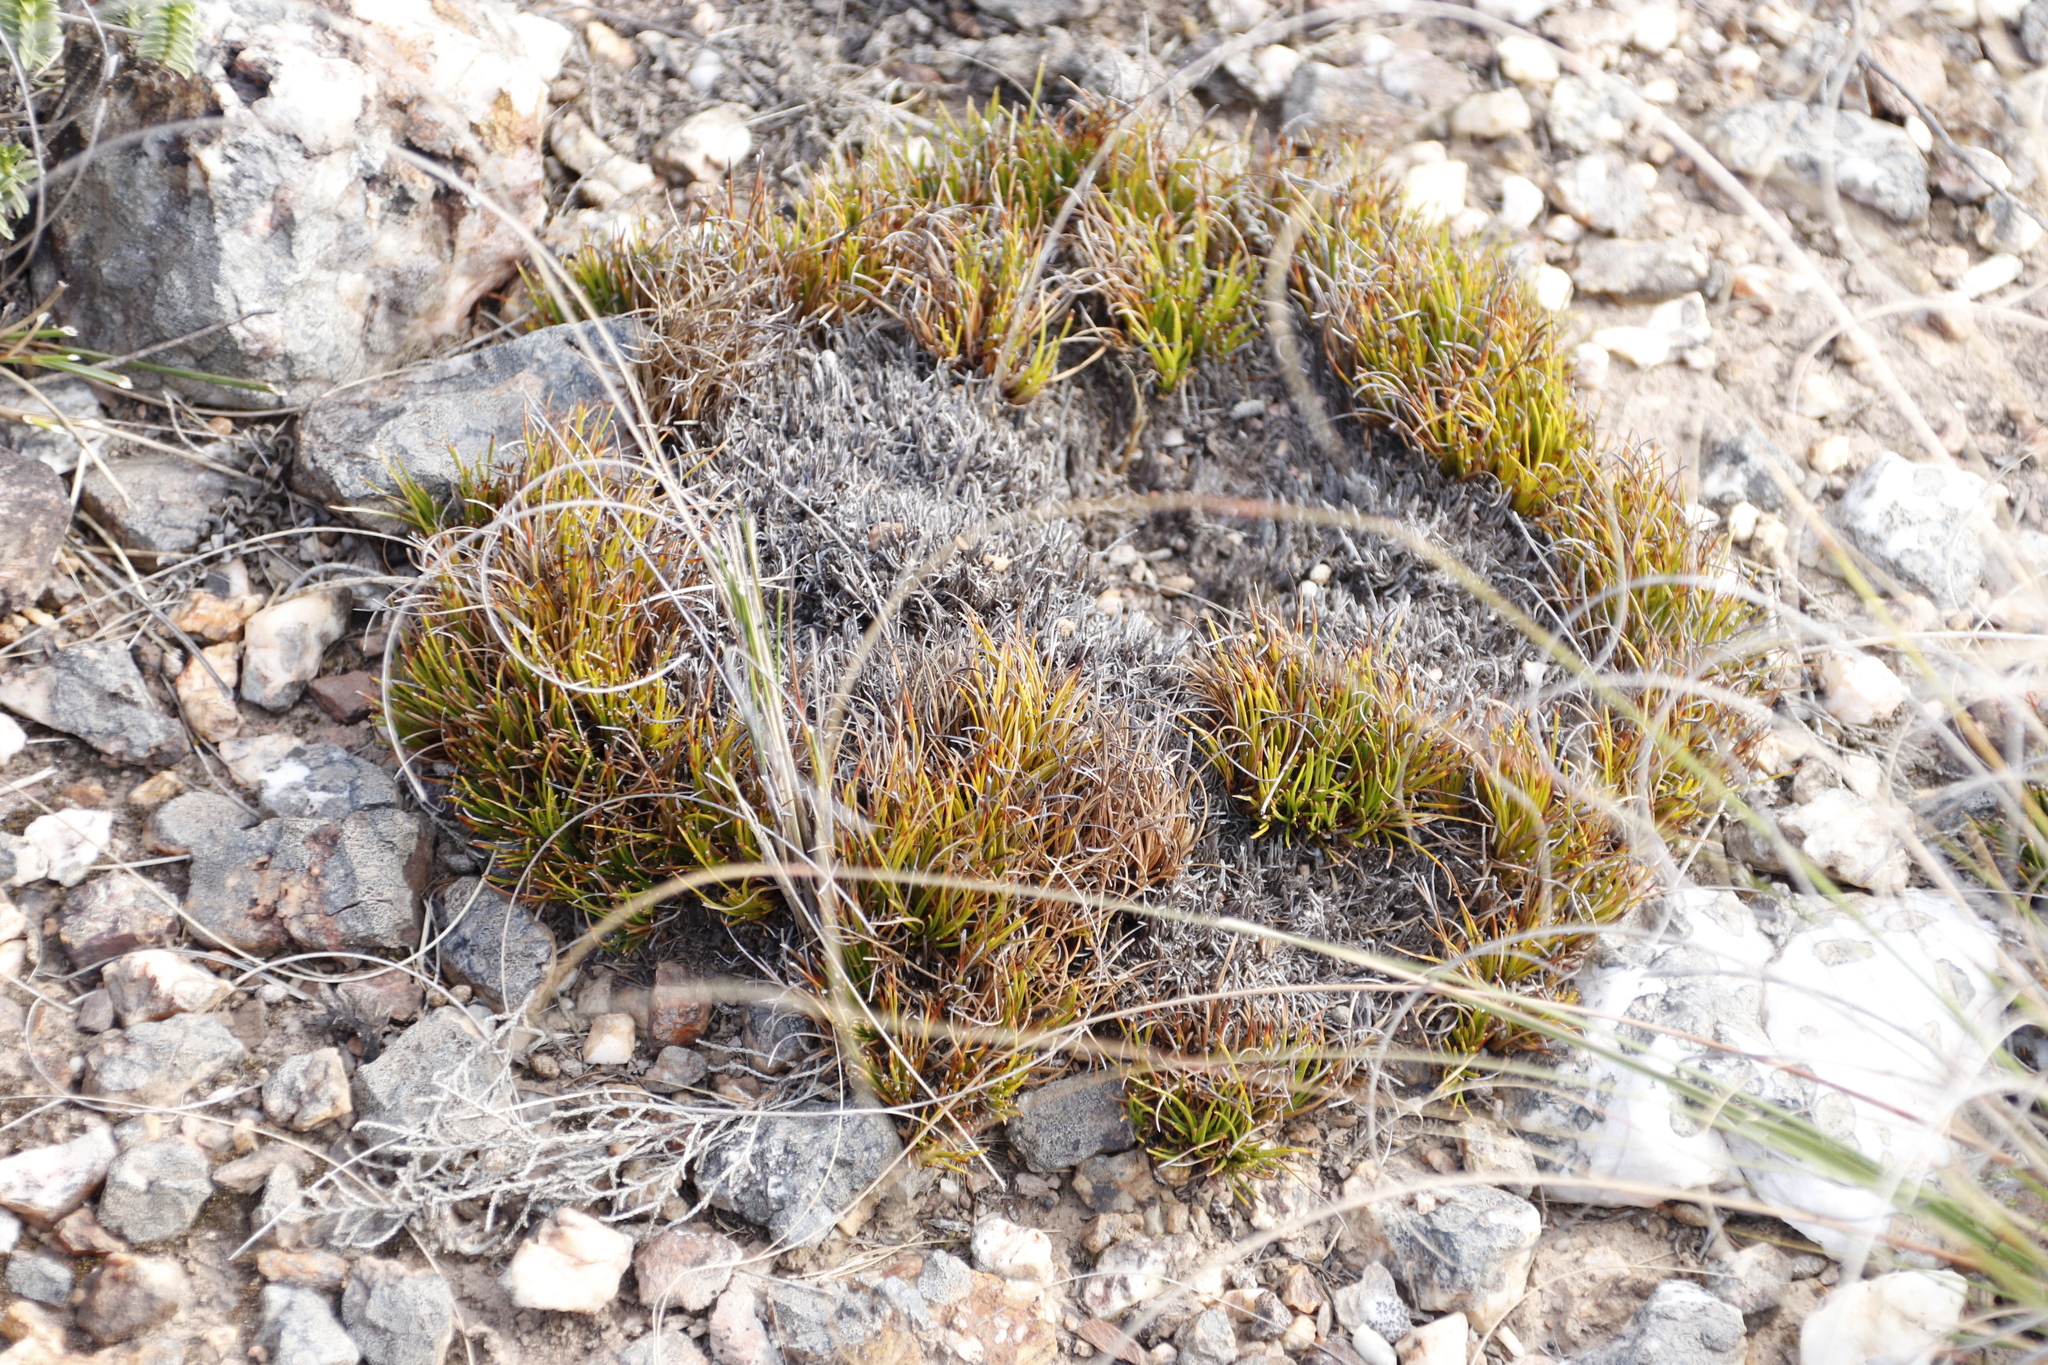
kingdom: Plantae
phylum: Tracheophyta
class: Liliopsida
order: Poales
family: Cyperaceae
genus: Ficinia
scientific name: Ficinia overbergensis
